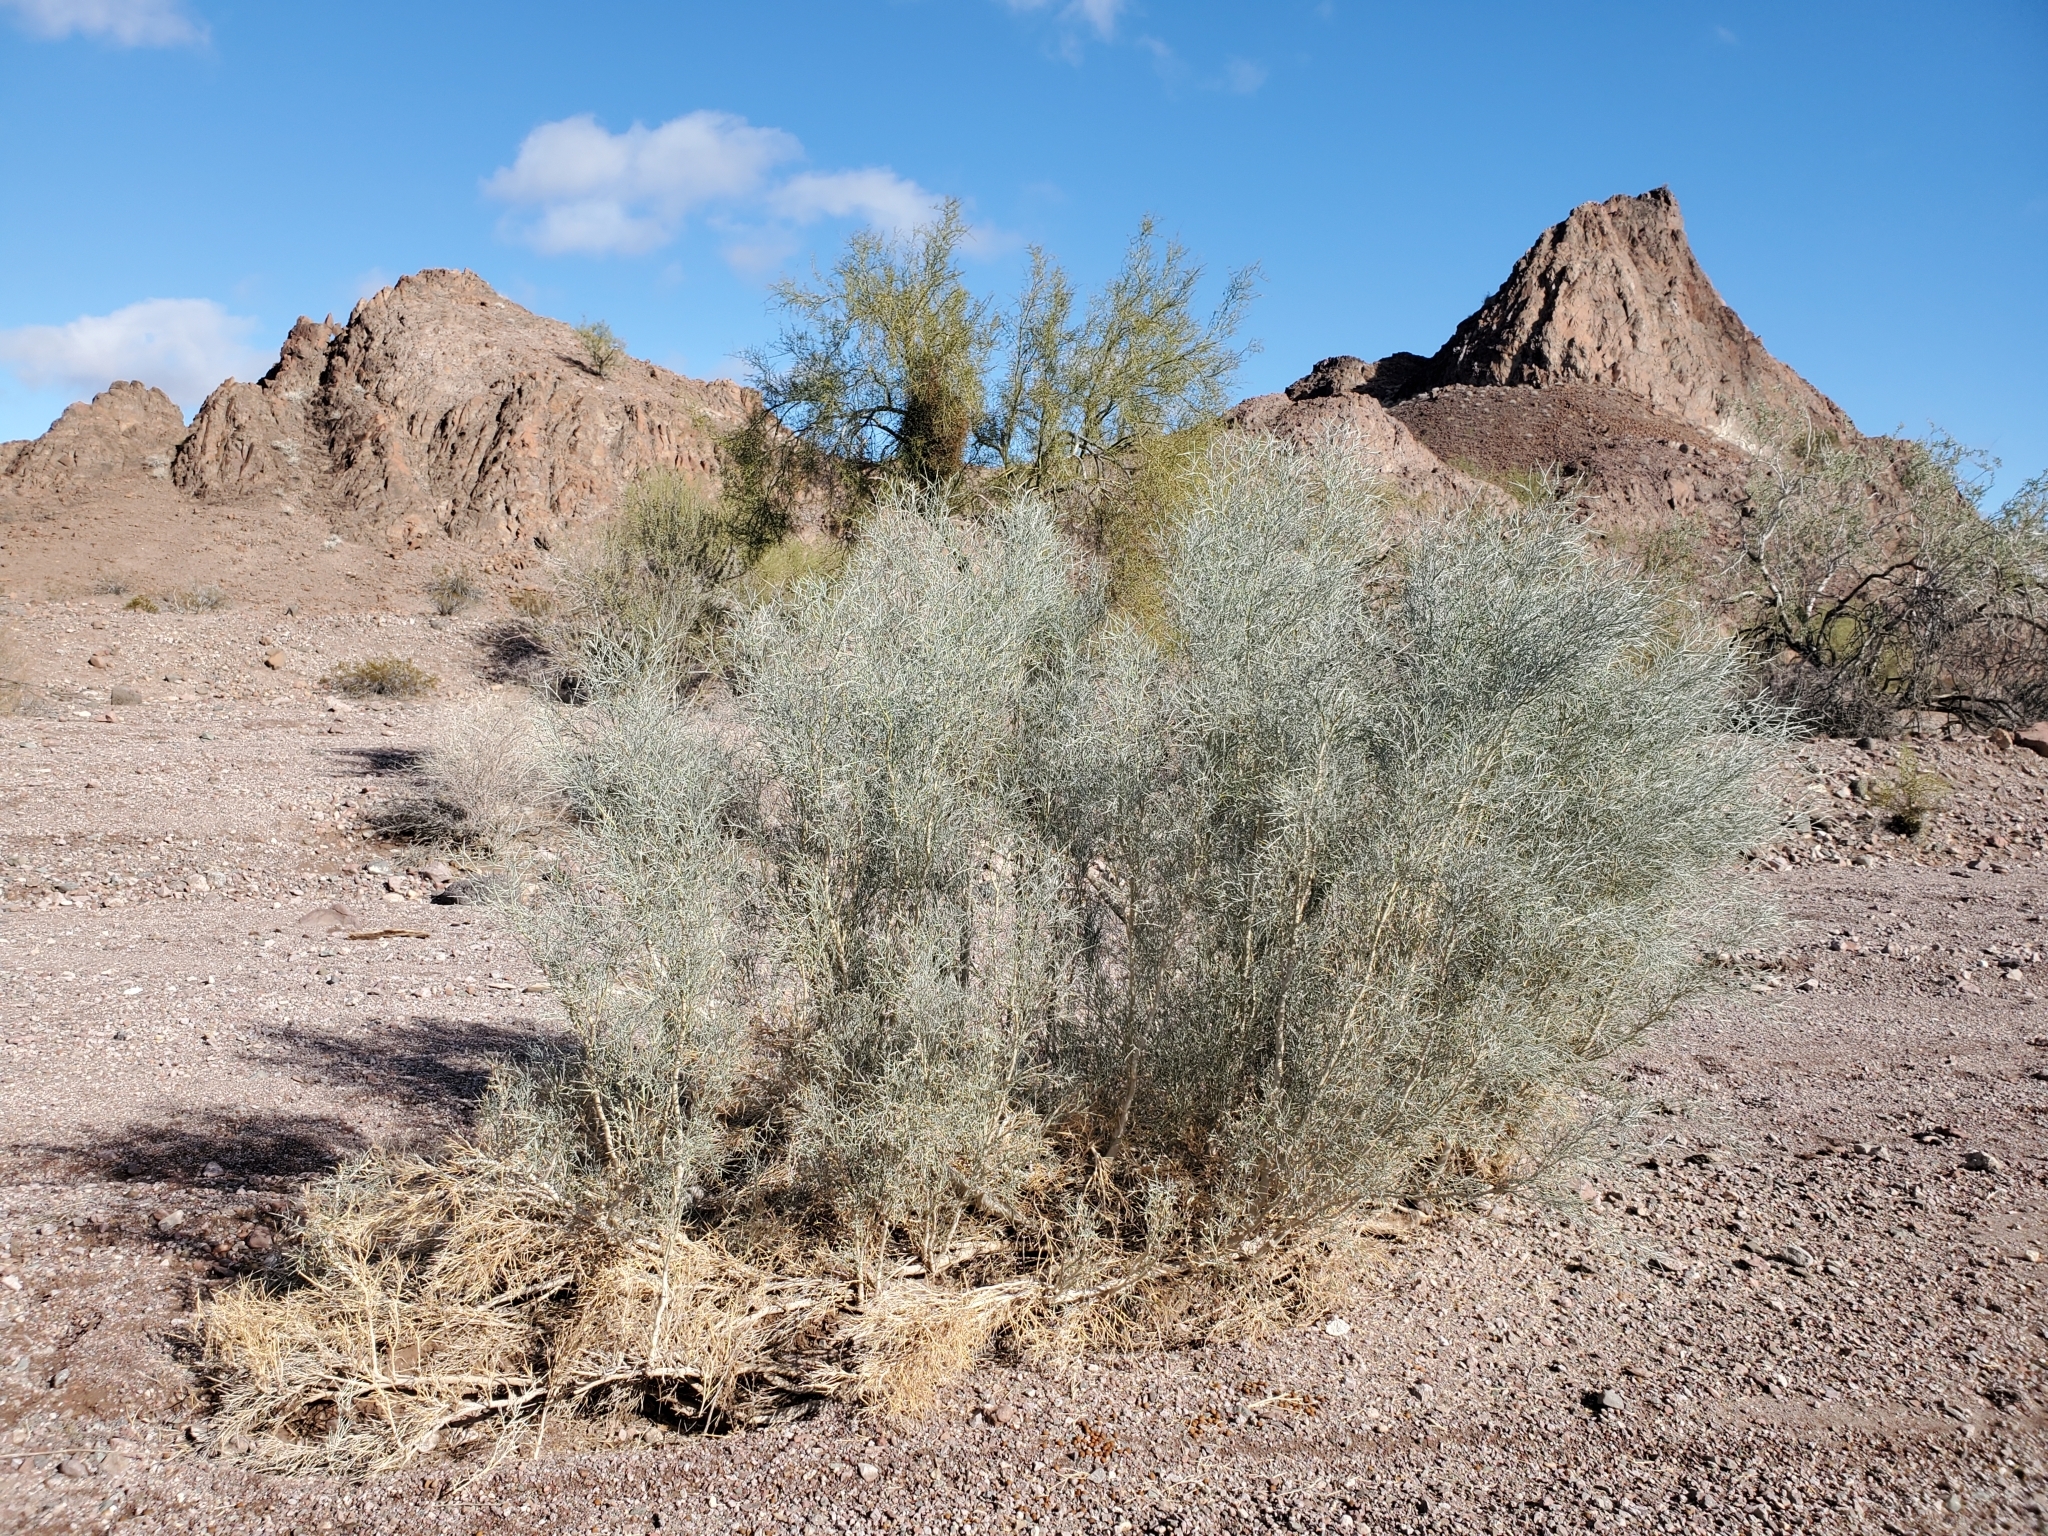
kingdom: Plantae
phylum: Tracheophyta
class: Magnoliopsida
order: Fabales
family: Fabaceae
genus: Psorothamnus
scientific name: Psorothamnus spinosus
